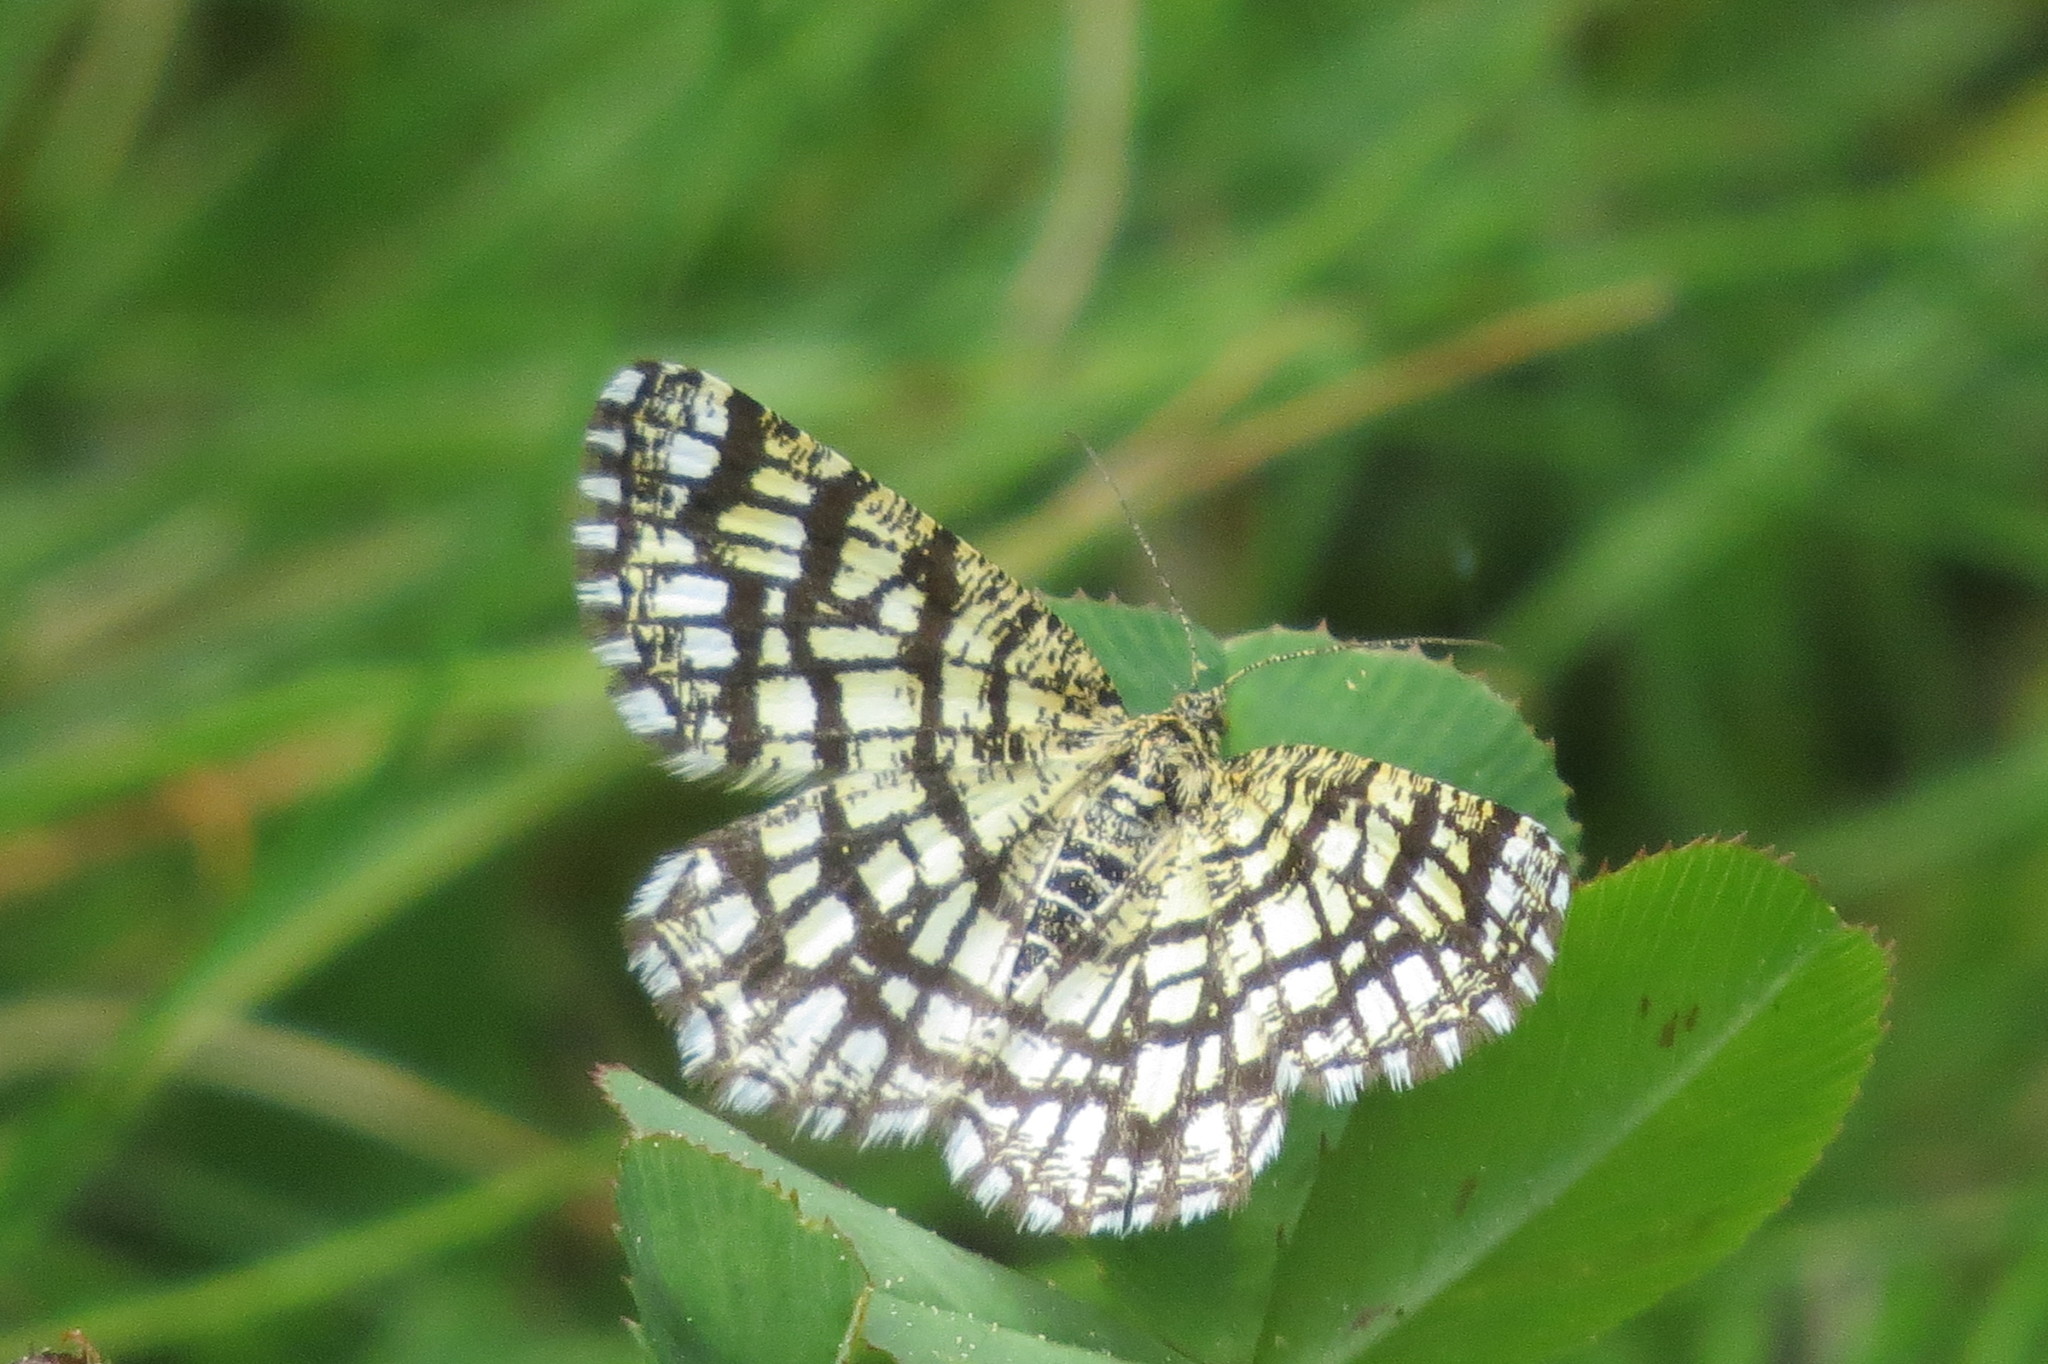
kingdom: Animalia
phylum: Arthropoda
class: Insecta
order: Lepidoptera
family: Geometridae
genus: Chiasmia
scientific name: Chiasmia clathrata
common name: Latticed heath
